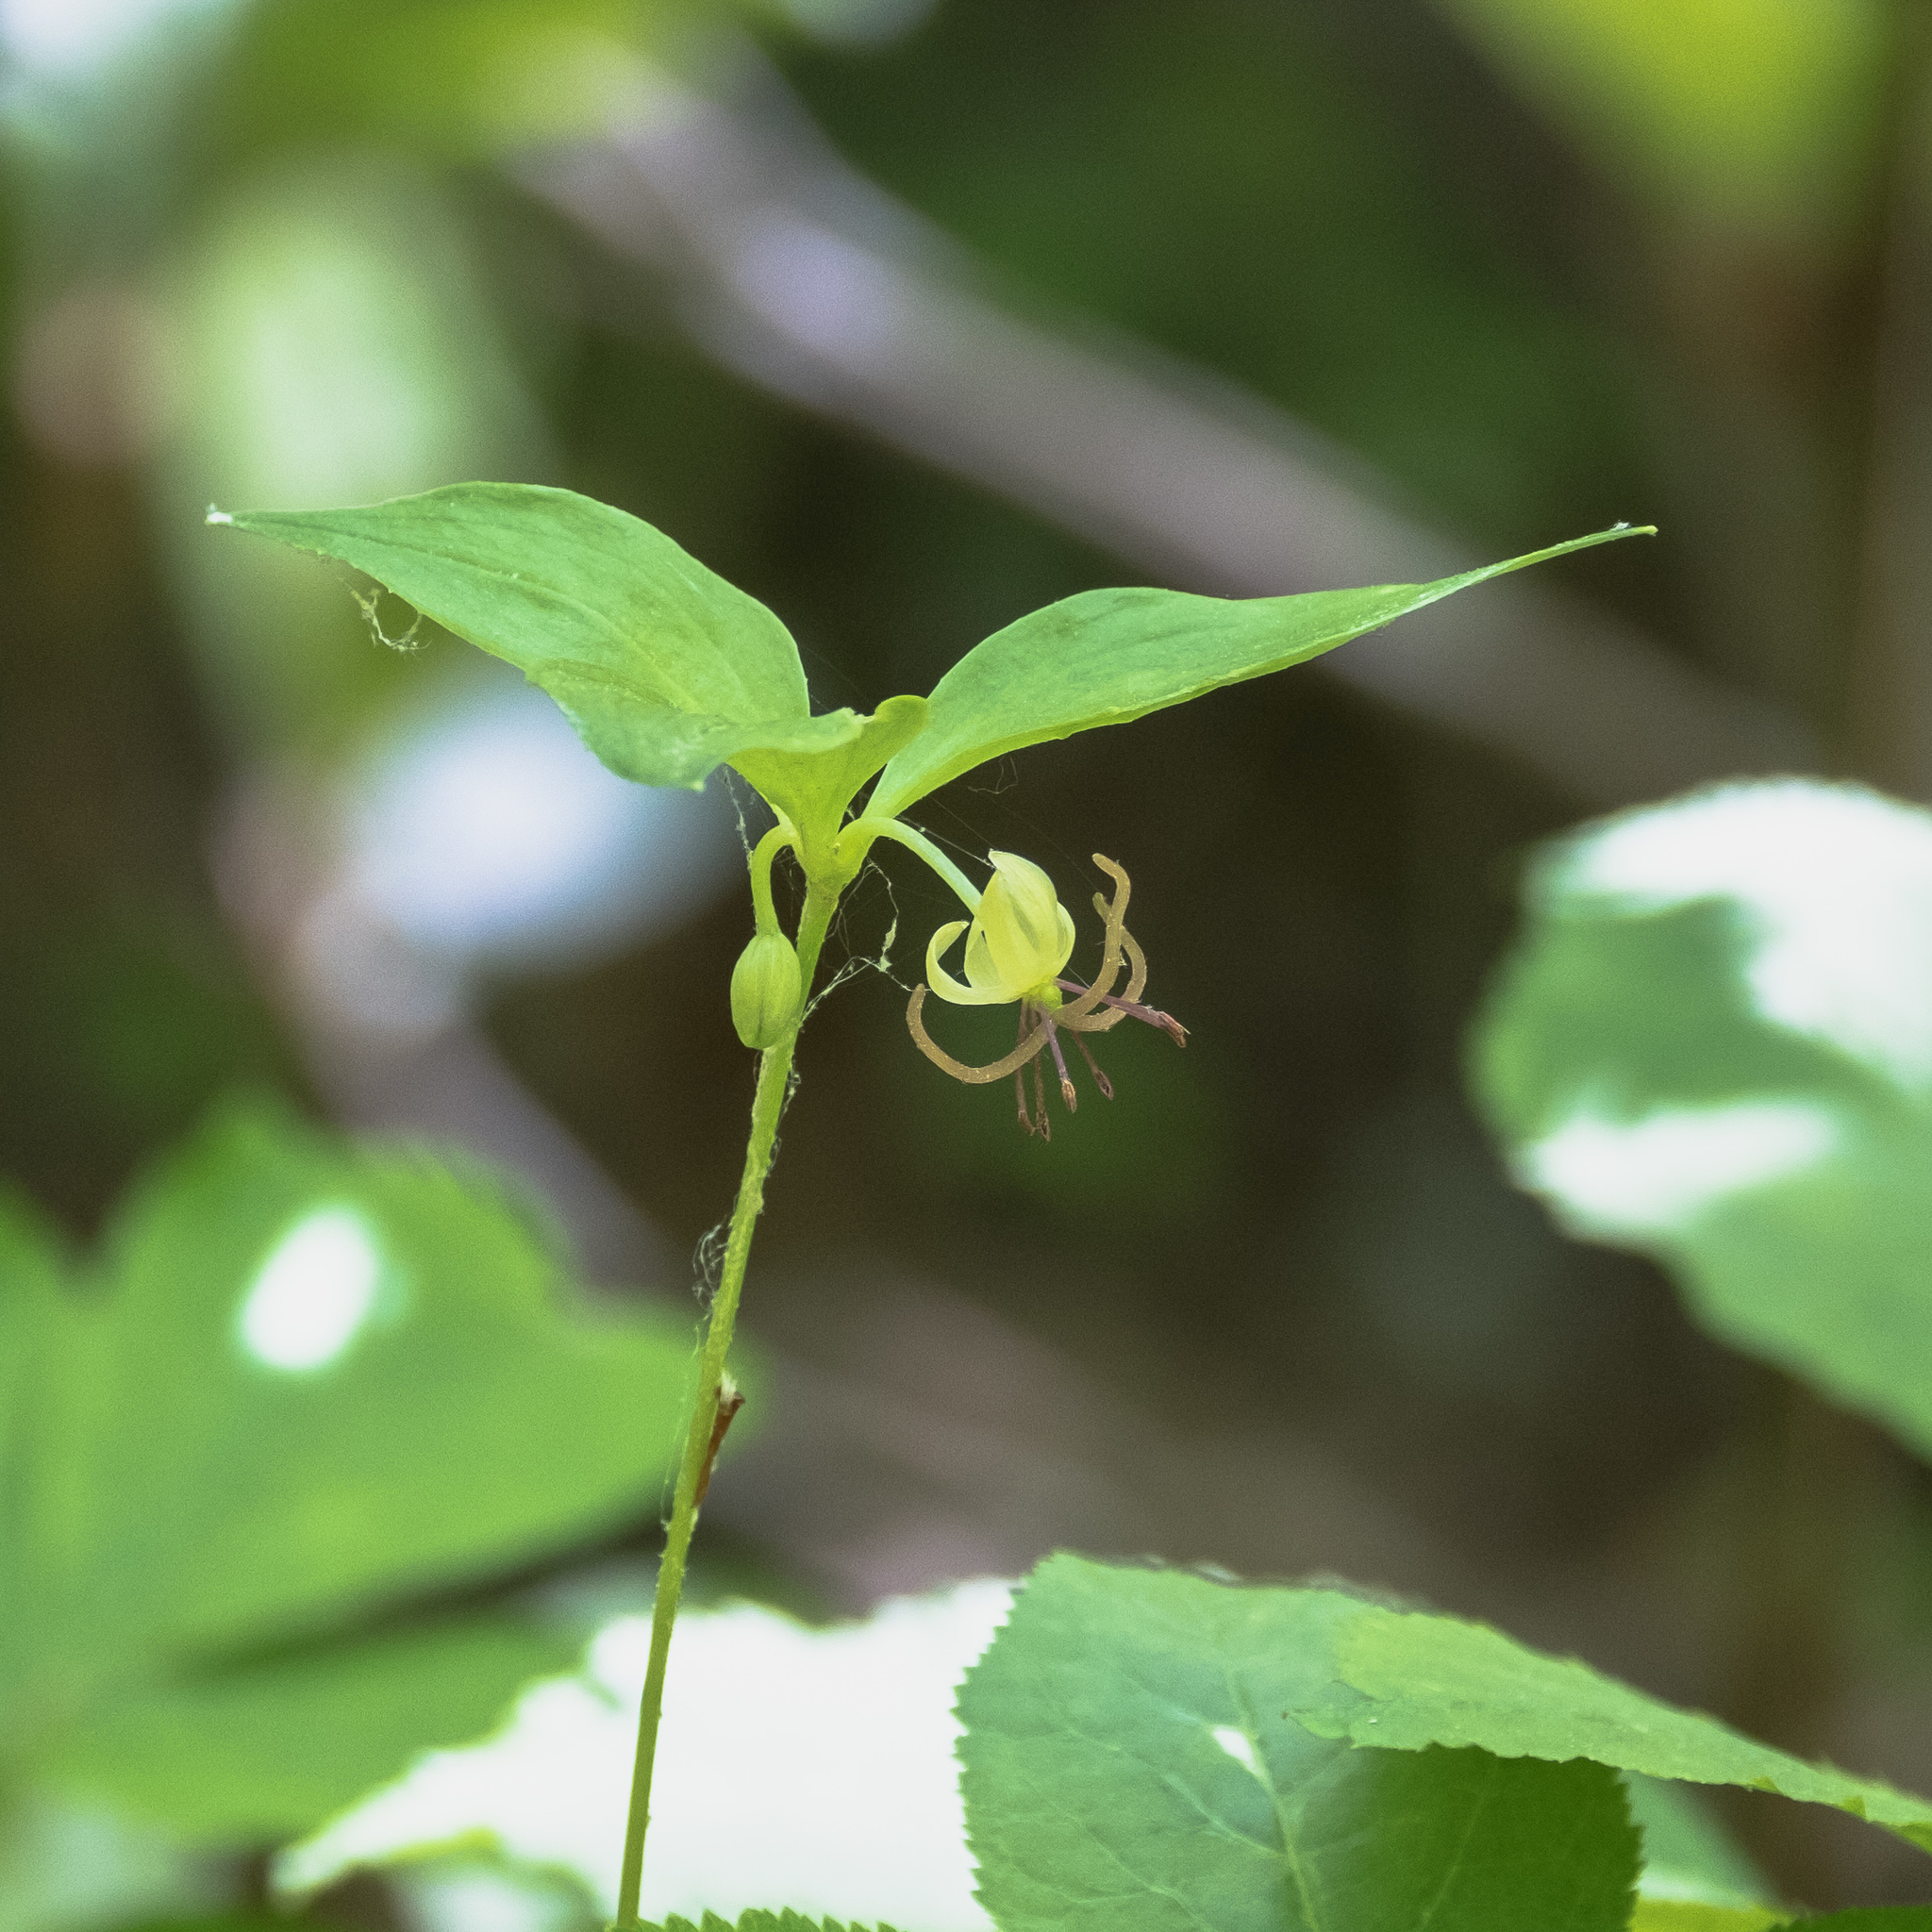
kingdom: Plantae
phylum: Tracheophyta
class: Liliopsida
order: Liliales
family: Liliaceae
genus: Medeola
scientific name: Medeola virginiana
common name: Indian cucumber-root
